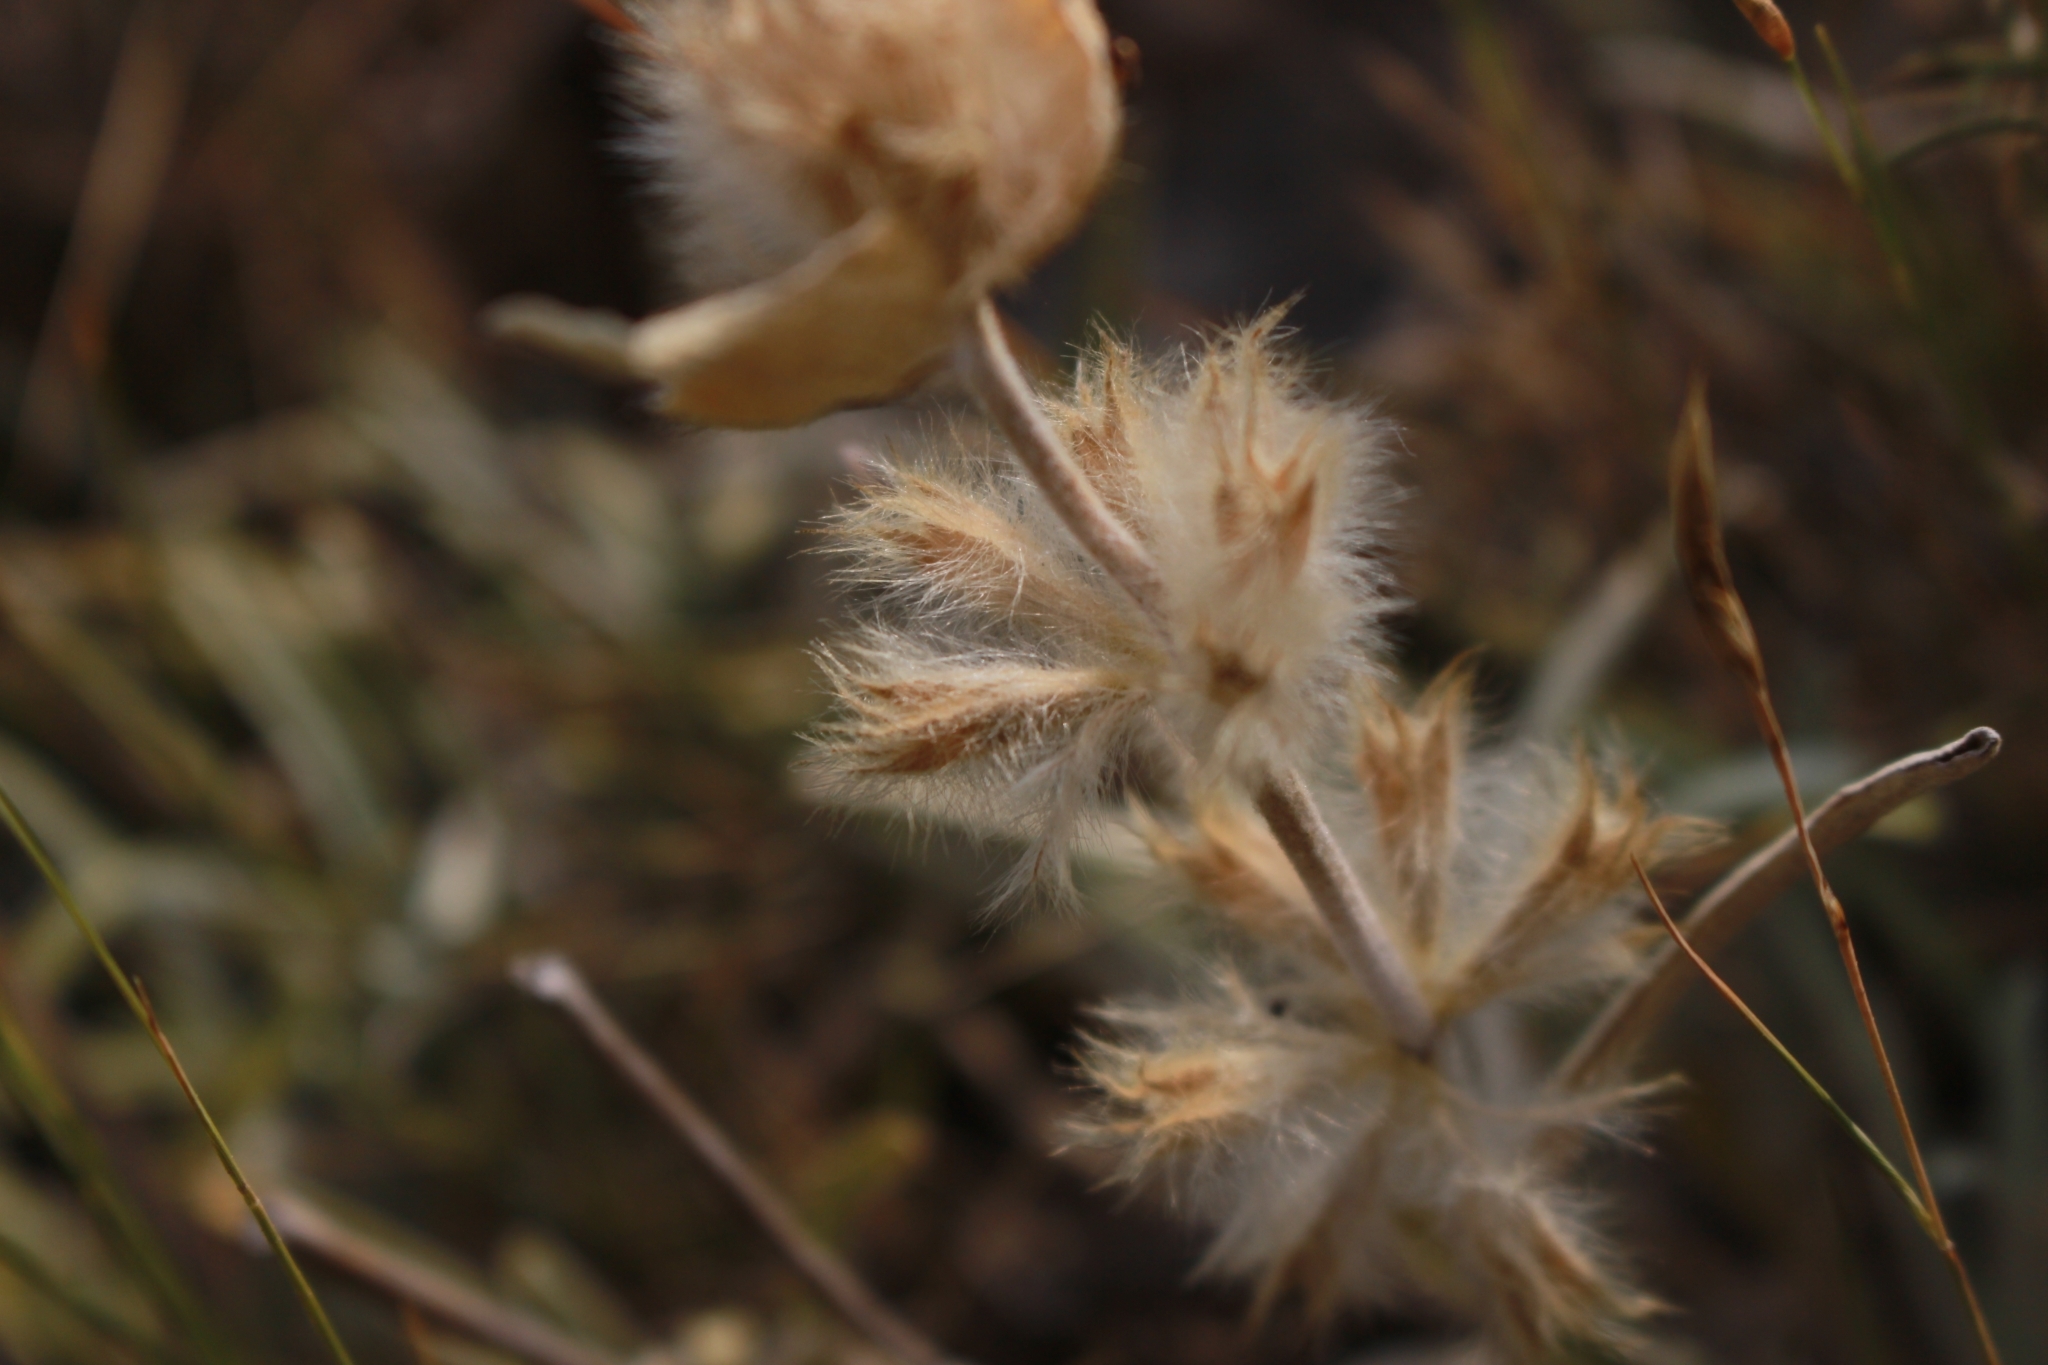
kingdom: Plantae
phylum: Tracheophyta
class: Magnoliopsida
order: Lamiales
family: Lamiaceae
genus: Phlomis
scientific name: Phlomis lychnitis
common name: Lampwickplant
